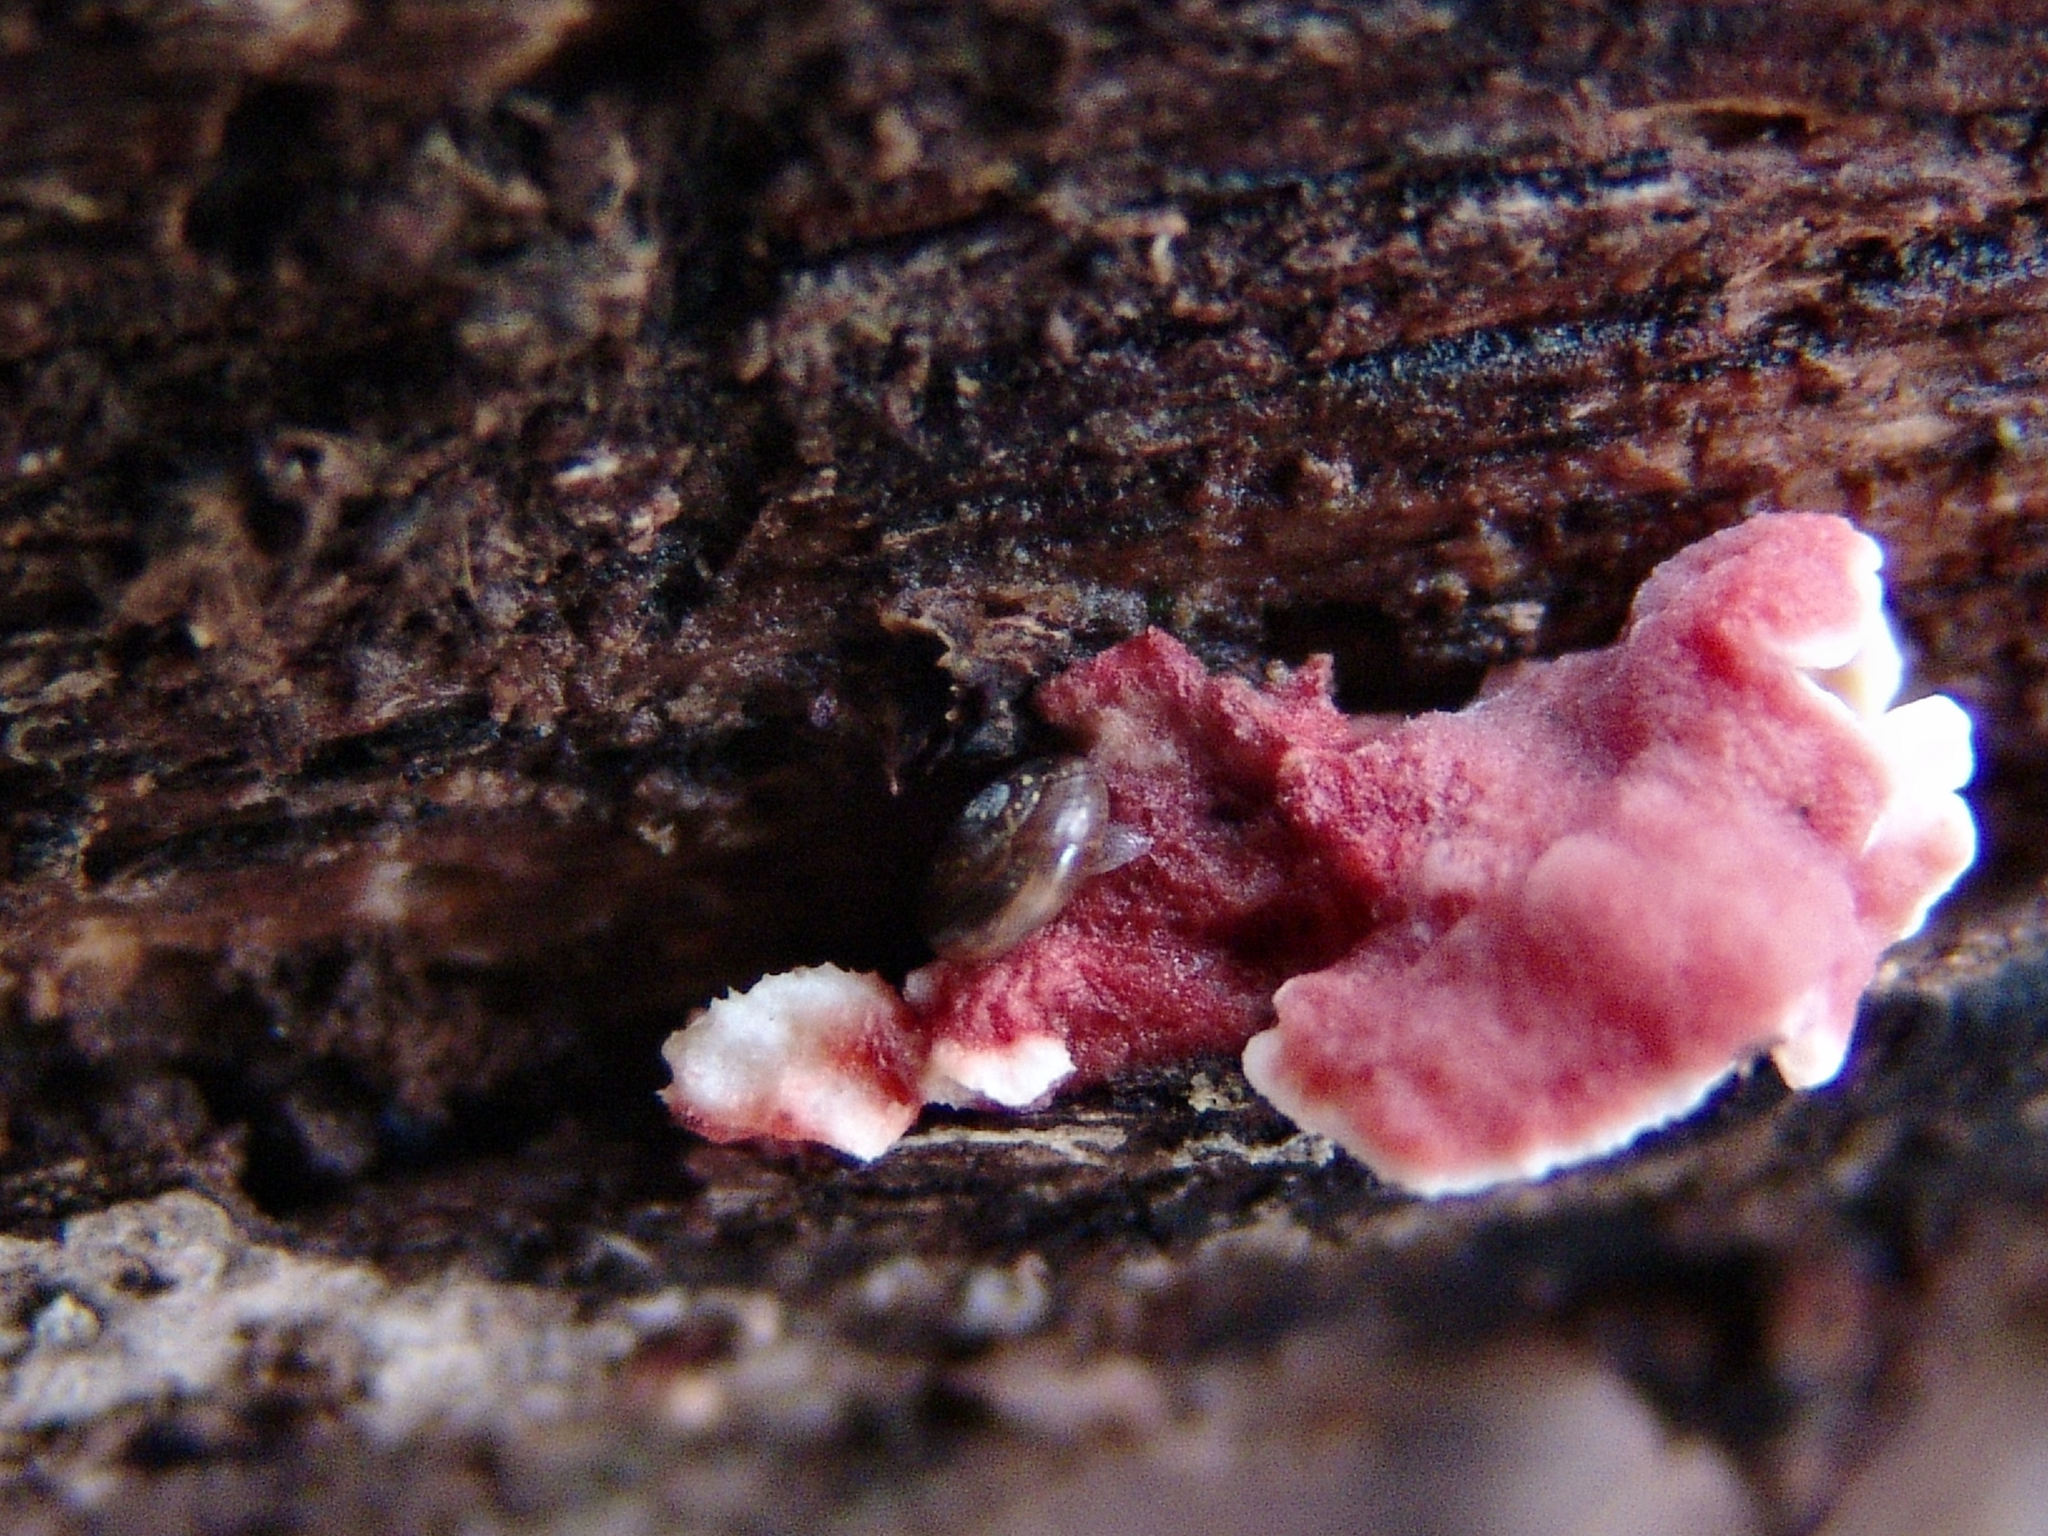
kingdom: Fungi
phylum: Basidiomycota
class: Agaricomycetes
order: Polyporales
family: Irpicaceae
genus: Byssomerulius
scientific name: Byssomerulius incarnatus
